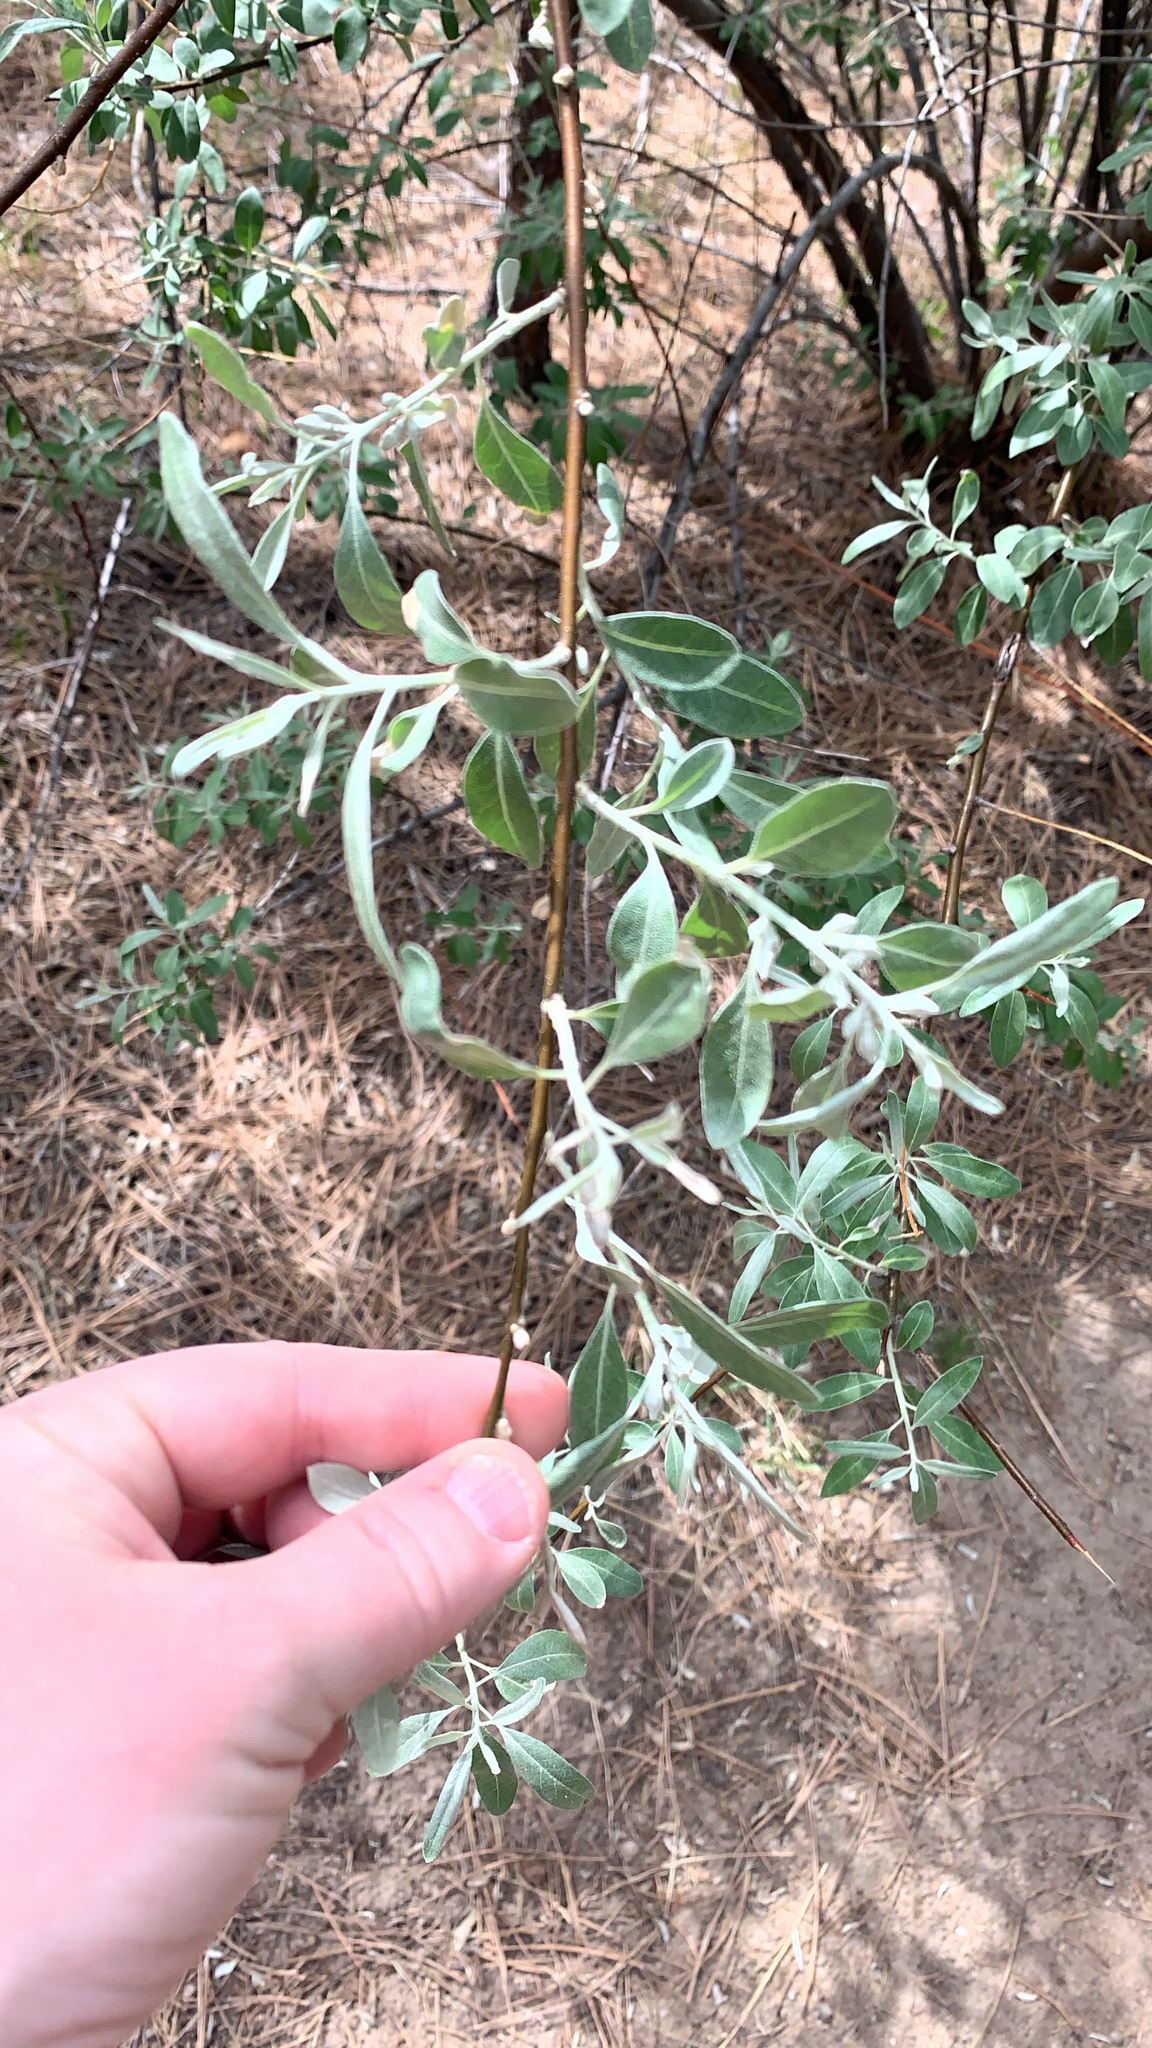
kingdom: Plantae
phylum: Tracheophyta
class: Magnoliopsida
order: Rosales
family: Elaeagnaceae
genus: Elaeagnus
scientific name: Elaeagnus angustifolia
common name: Russian olive
